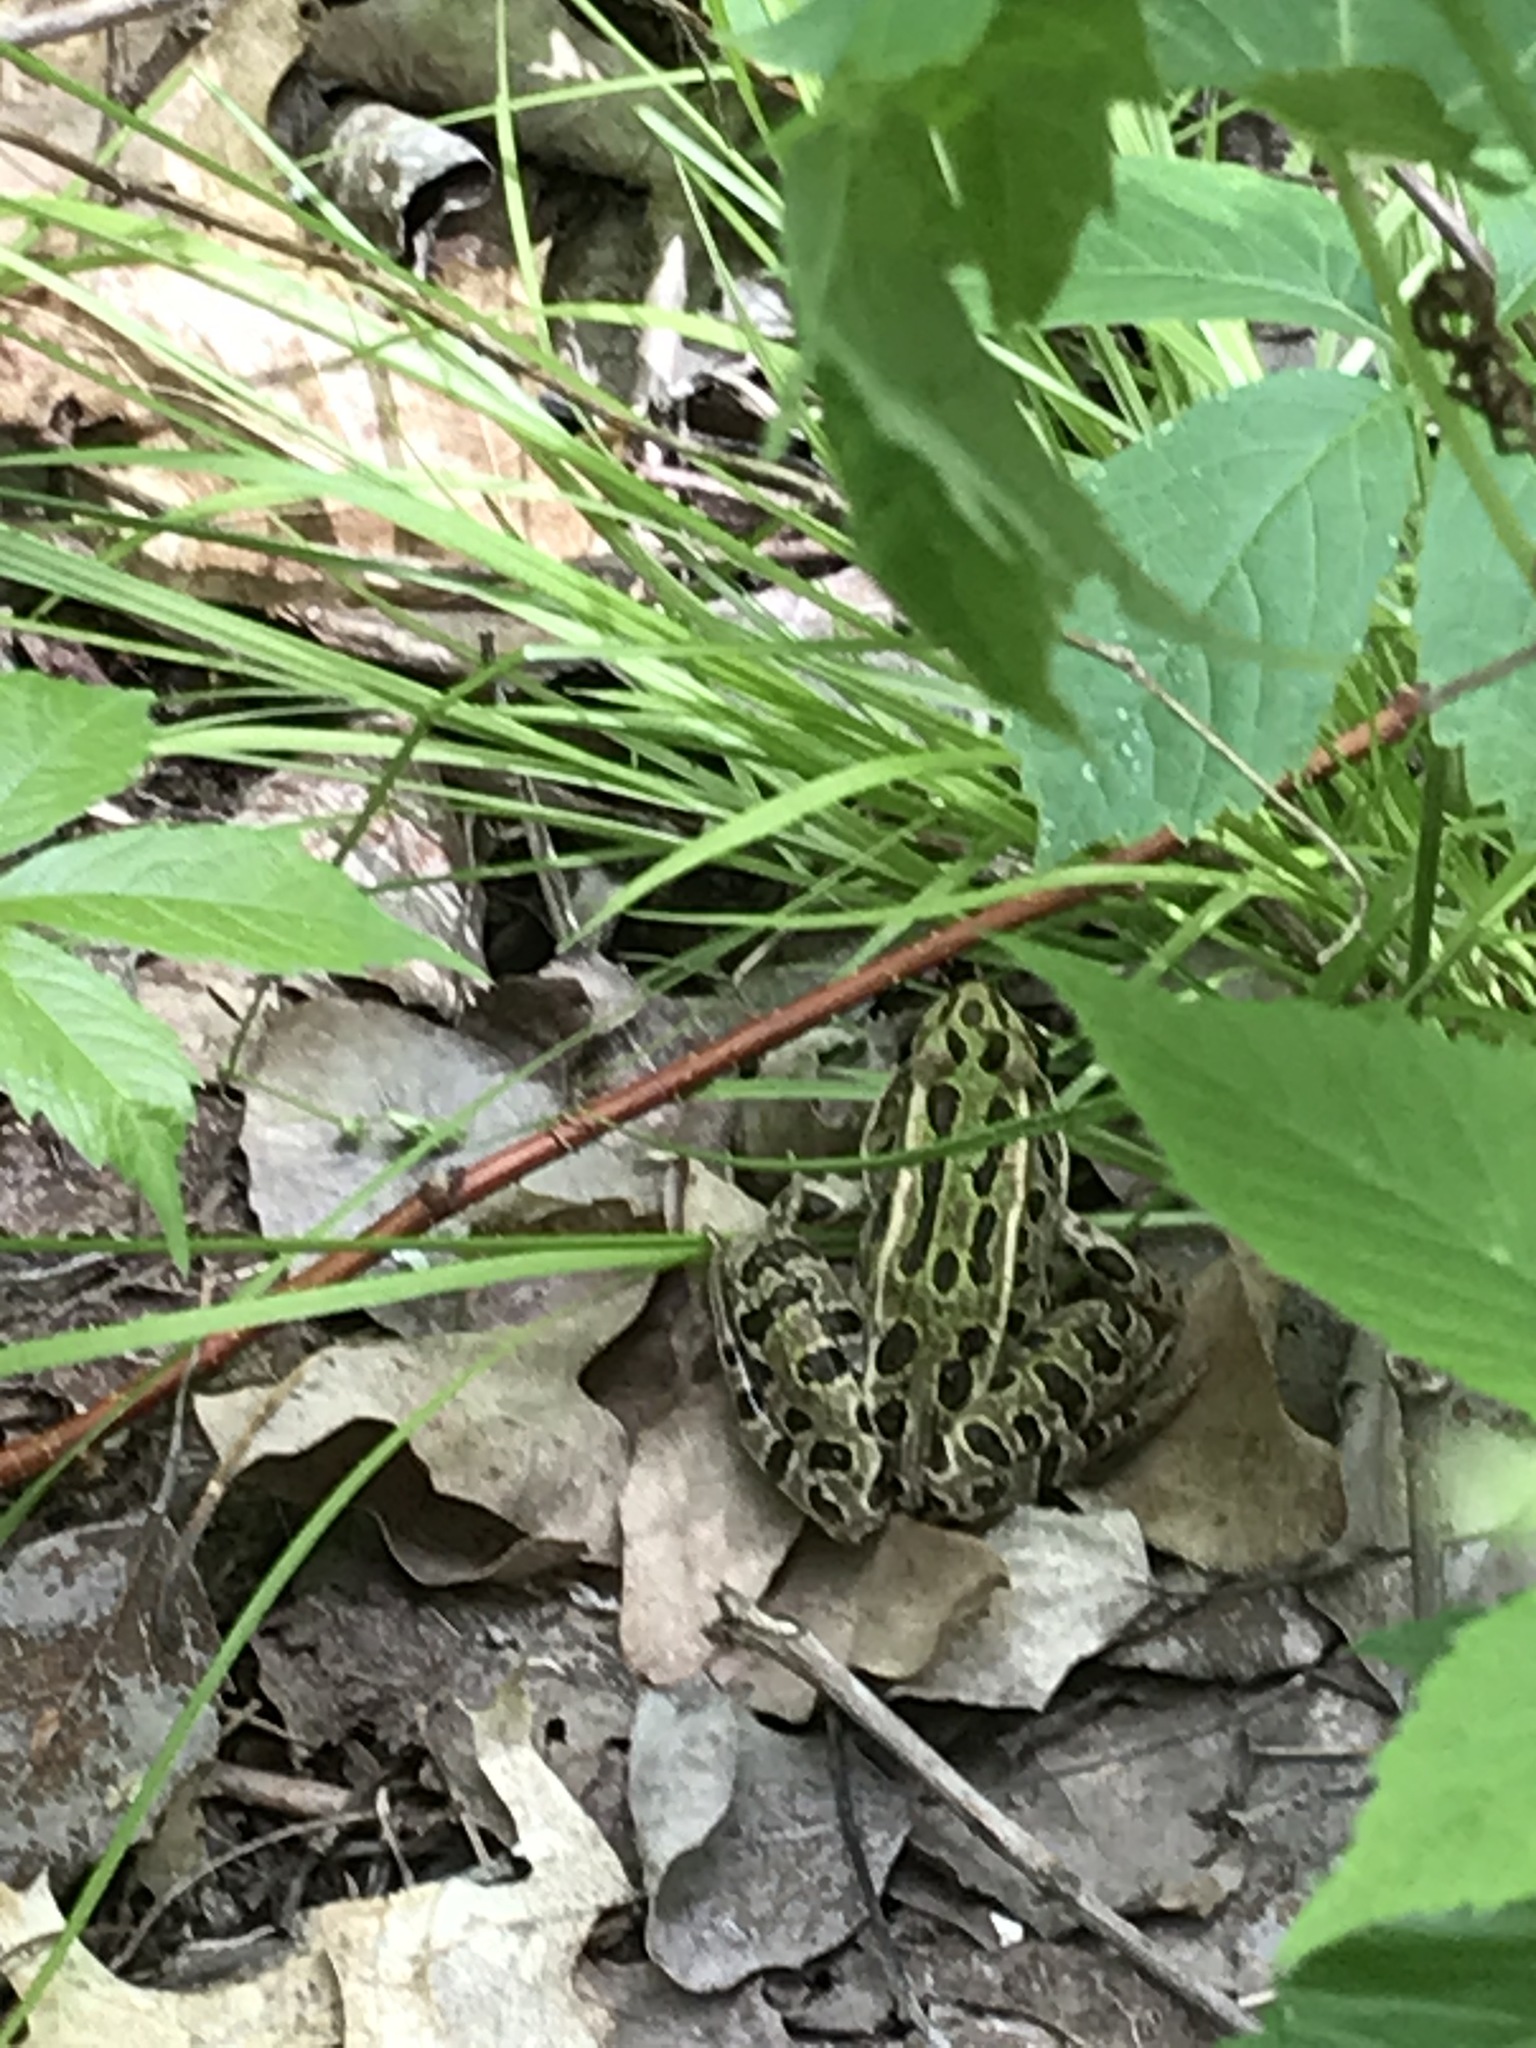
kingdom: Animalia
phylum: Chordata
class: Amphibia
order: Anura
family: Ranidae
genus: Lithobates
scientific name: Lithobates pipiens
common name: Northern leopard frog
